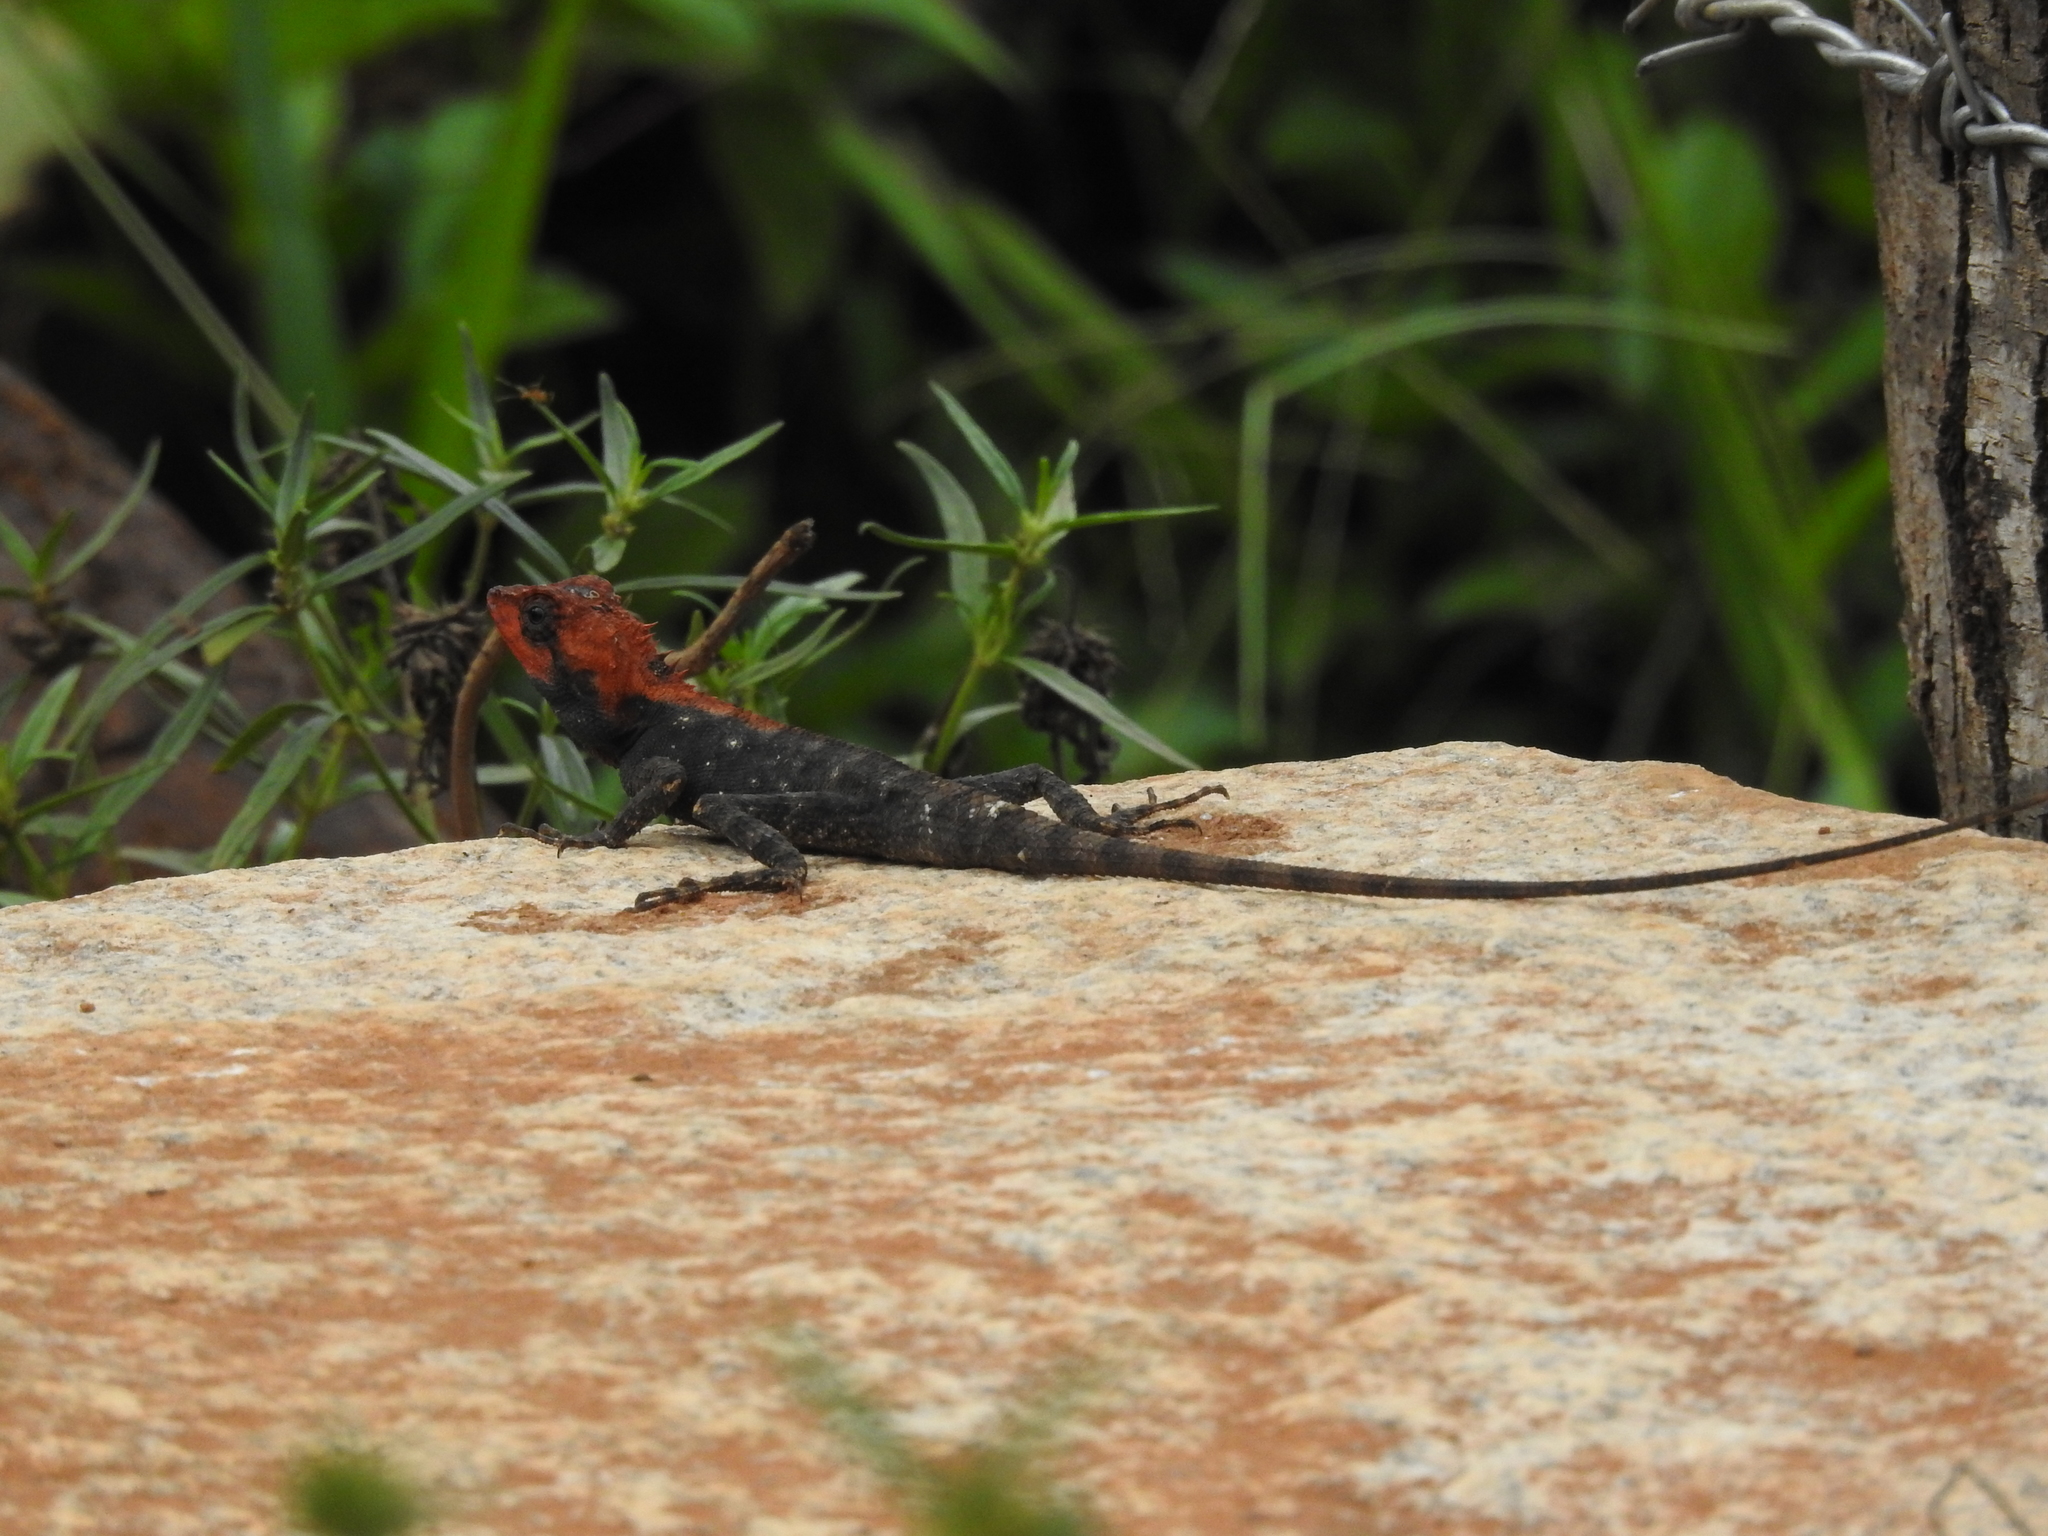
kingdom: Animalia
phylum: Chordata
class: Squamata
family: Agamidae
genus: Monilesaurus
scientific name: Monilesaurus rouxii
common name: Roux's forest lizard
